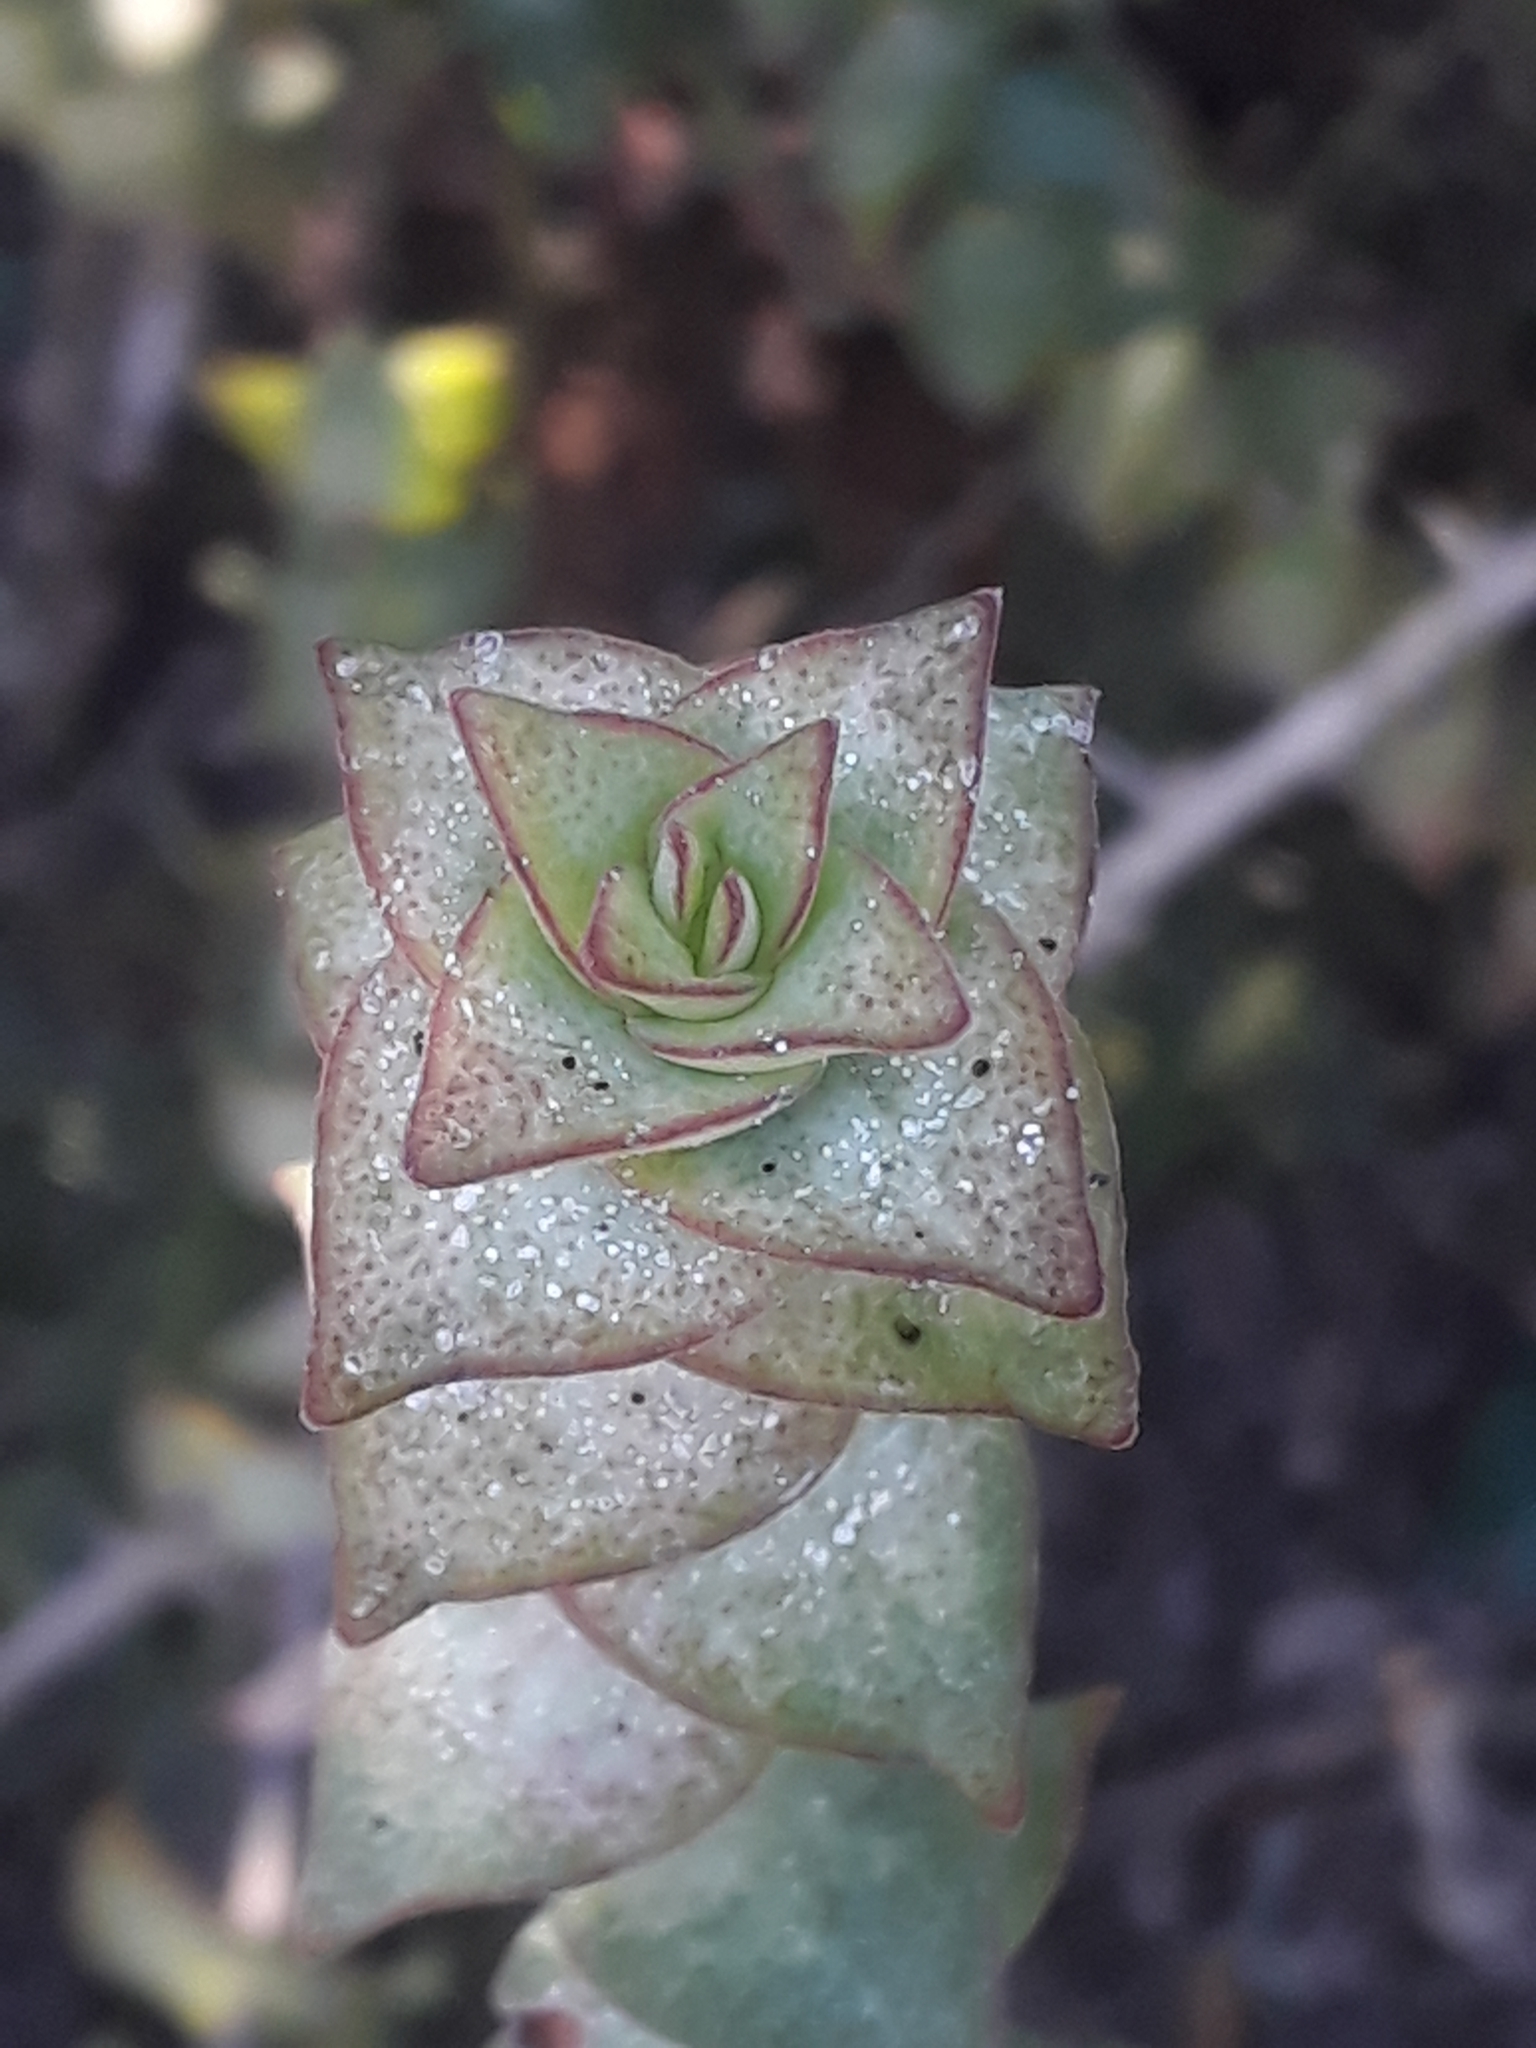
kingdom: Plantae
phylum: Tracheophyta
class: Magnoliopsida
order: Saxifragales
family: Crassulaceae
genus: Crassula
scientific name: Crassula perforata
